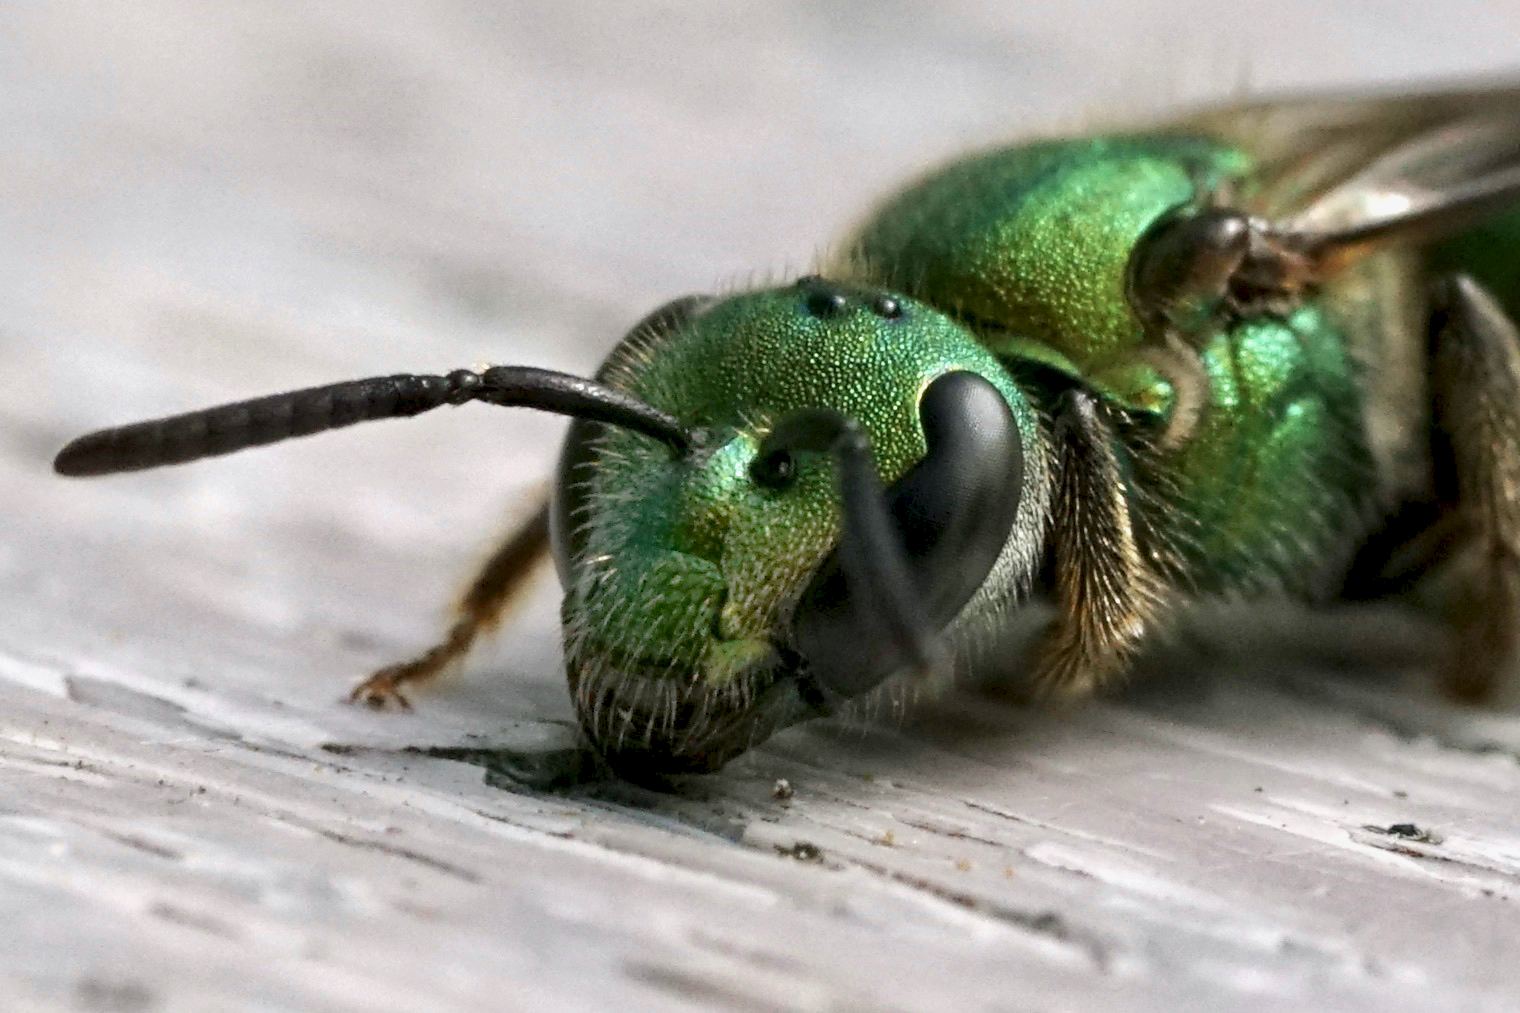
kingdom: Animalia
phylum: Arthropoda
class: Insecta
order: Hymenoptera
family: Halictidae
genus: Augochlora
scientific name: Augochlora pura
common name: Pure green sweat bee
